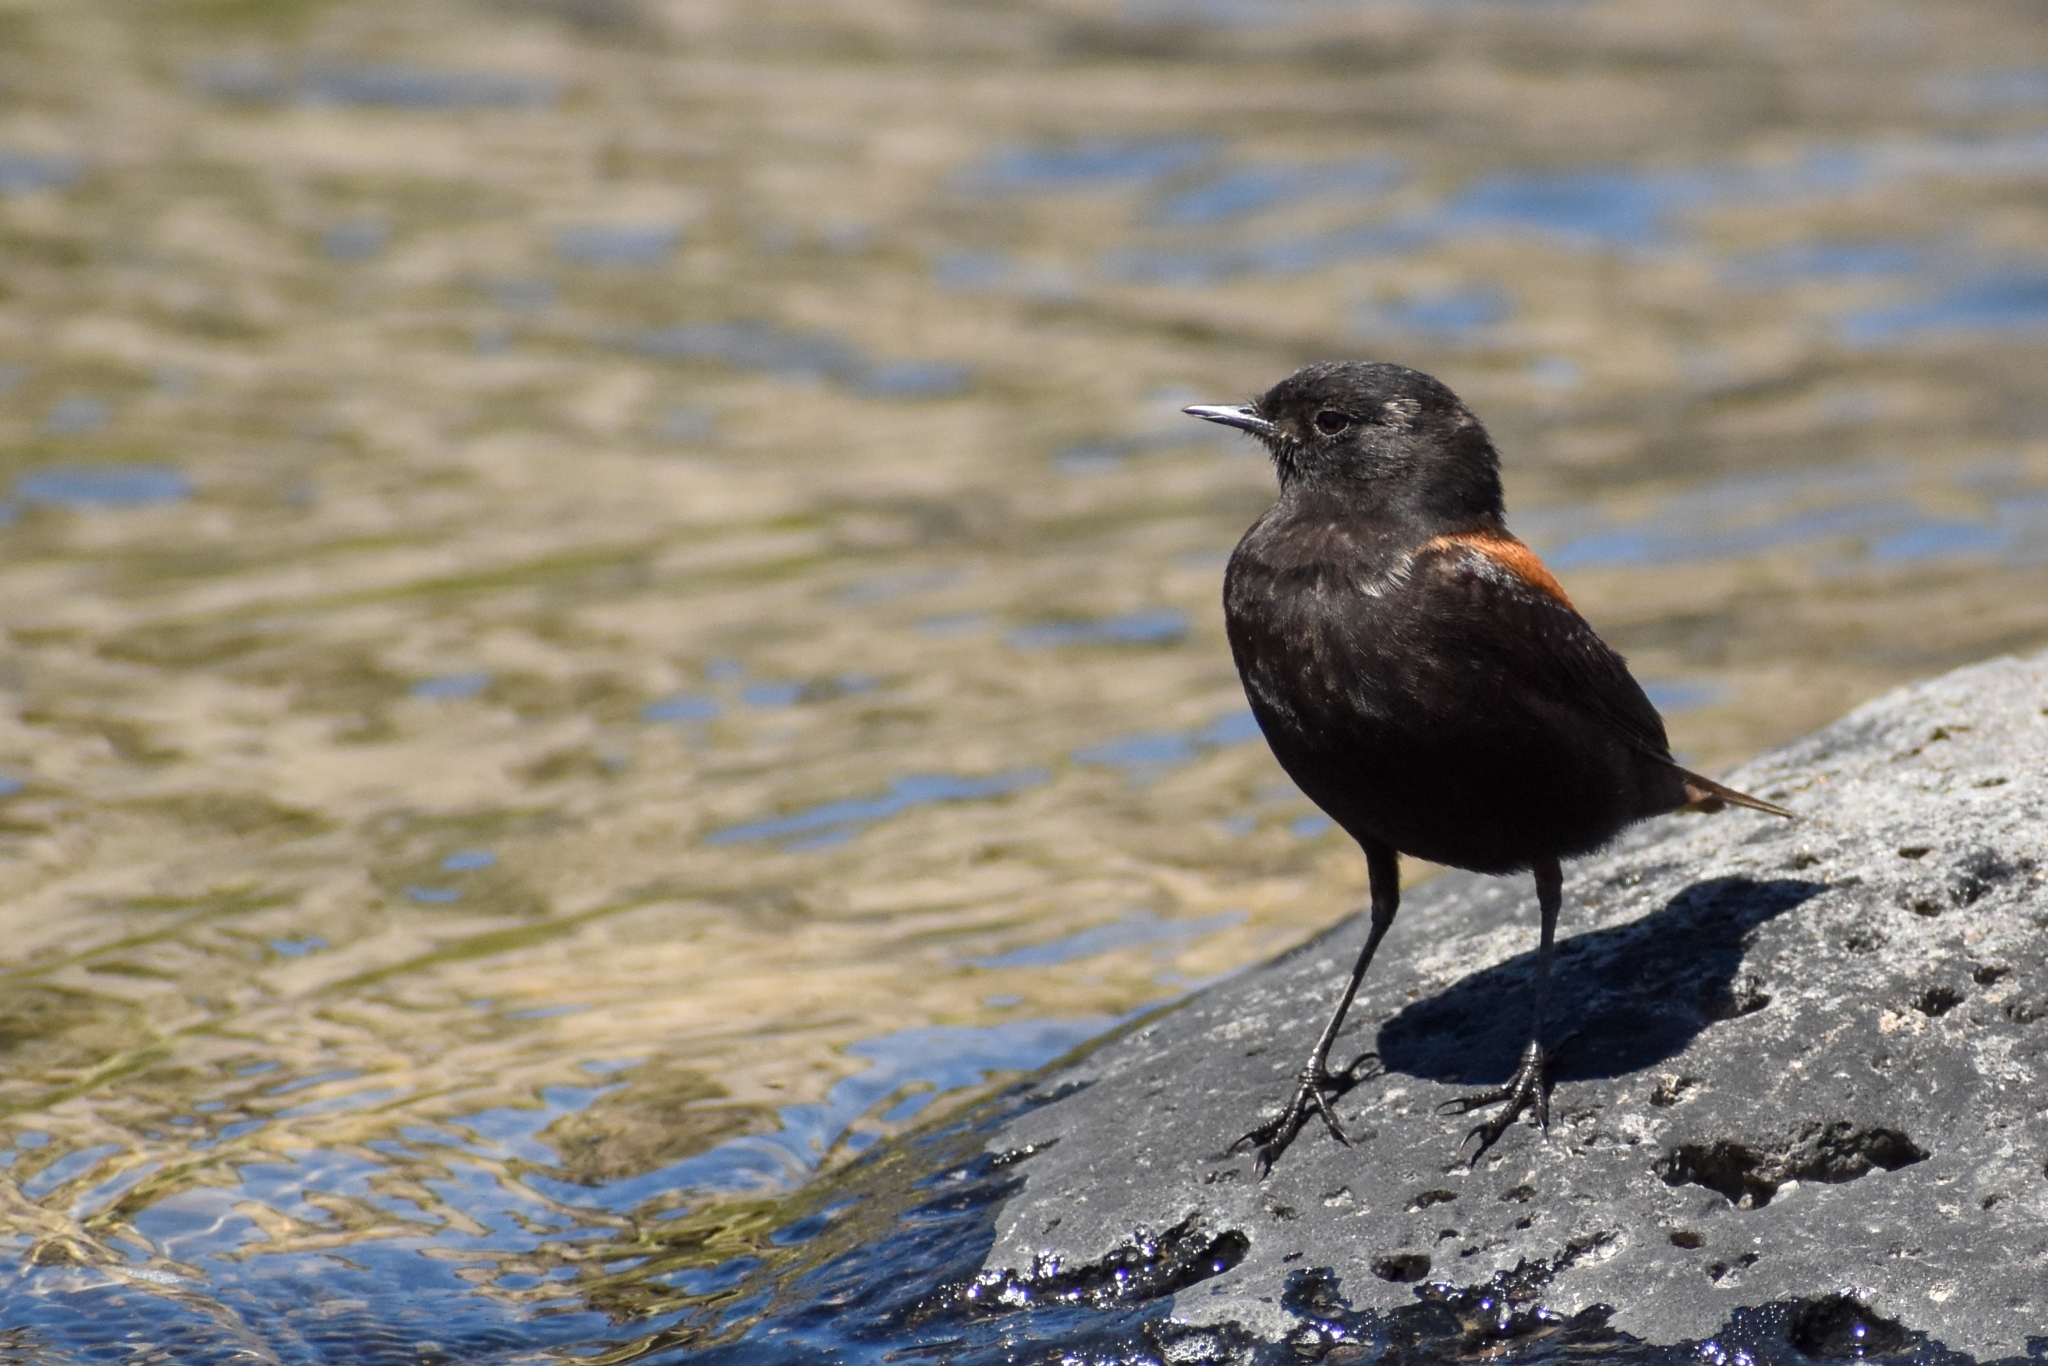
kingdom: Animalia
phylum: Chordata
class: Aves
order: Passeriformes
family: Tyrannidae
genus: Lessonia
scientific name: Lessonia rufa
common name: Austral negrito
